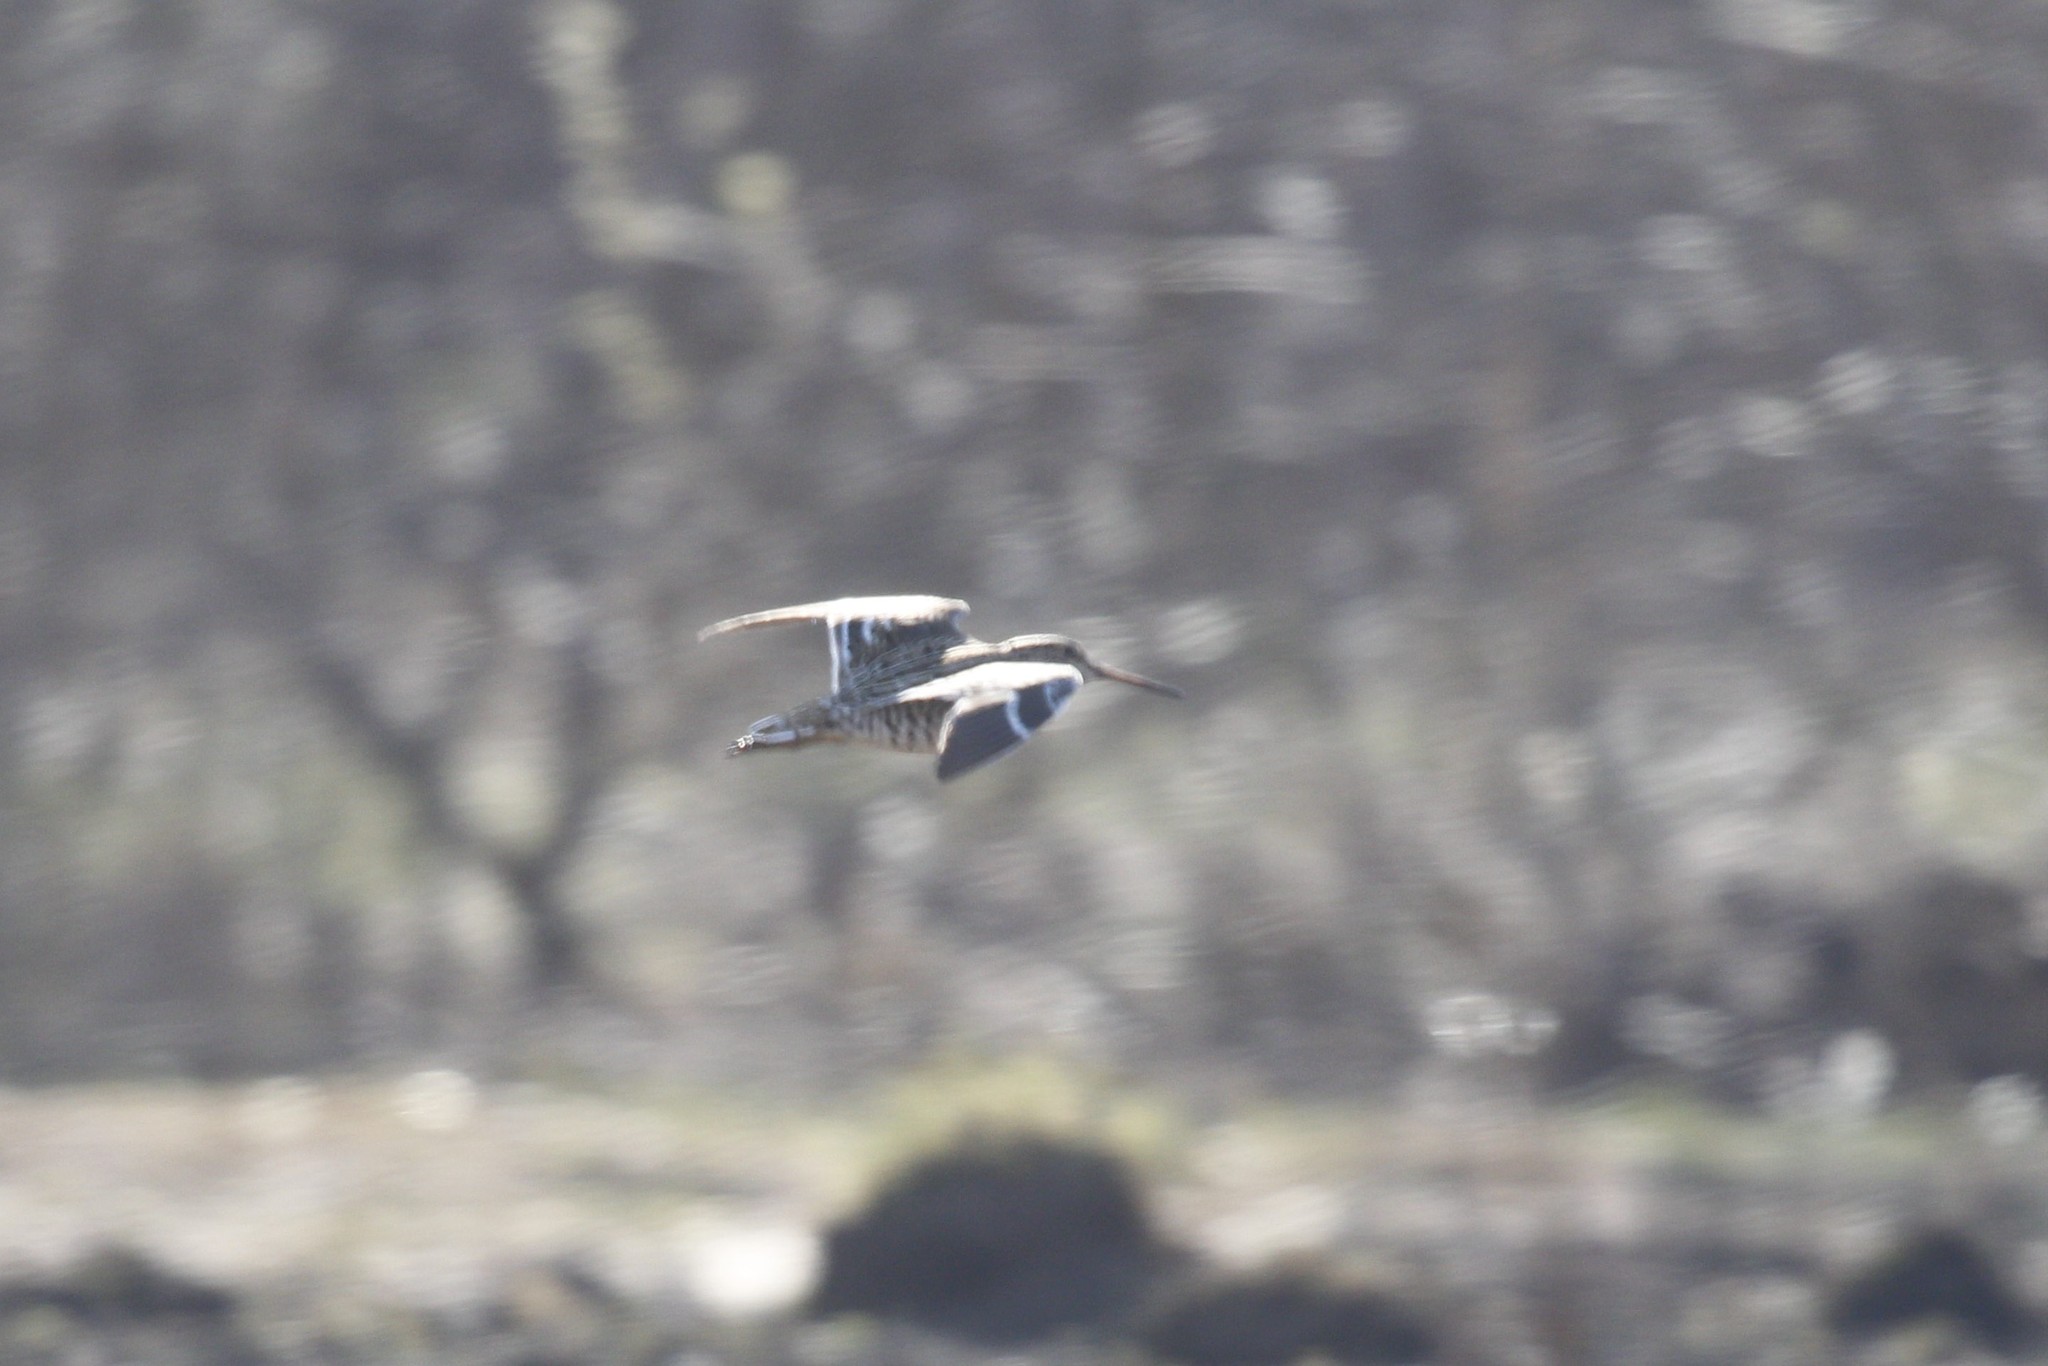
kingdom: Animalia
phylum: Chordata
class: Aves
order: Charadriiformes
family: Scolopacidae
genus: Gallinago
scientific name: Gallinago media
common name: Great snipe
